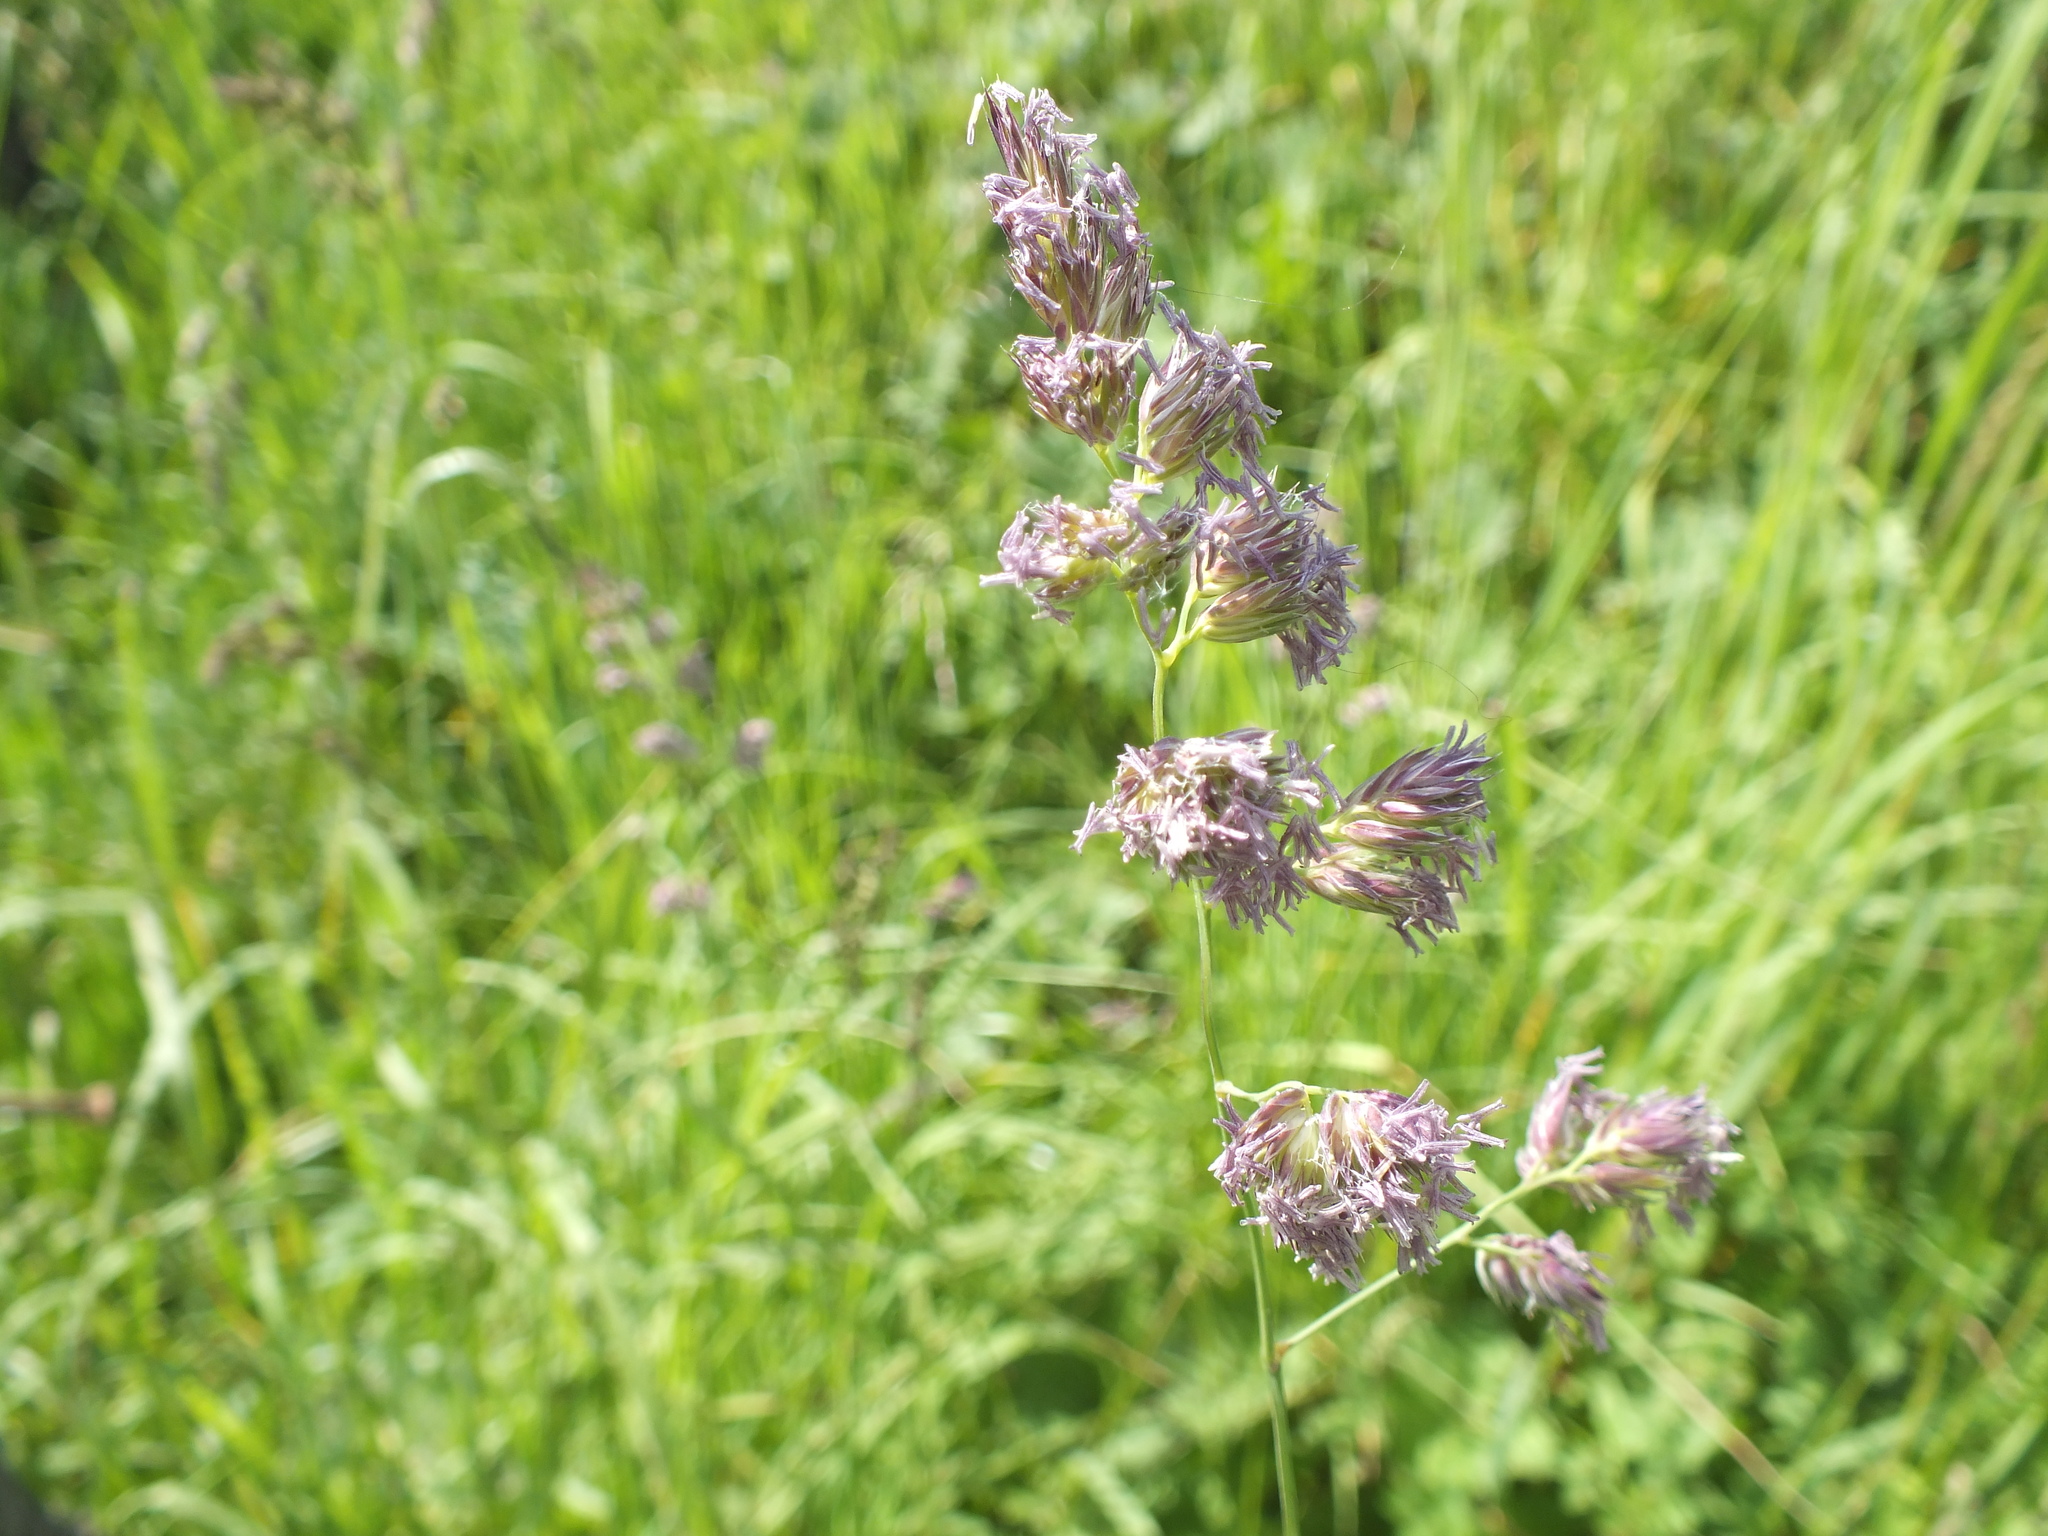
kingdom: Plantae
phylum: Tracheophyta
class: Liliopsida
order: Poales
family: Poaceae
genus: Dactylis
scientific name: Dactylis glomerata
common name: Orchardgrass
